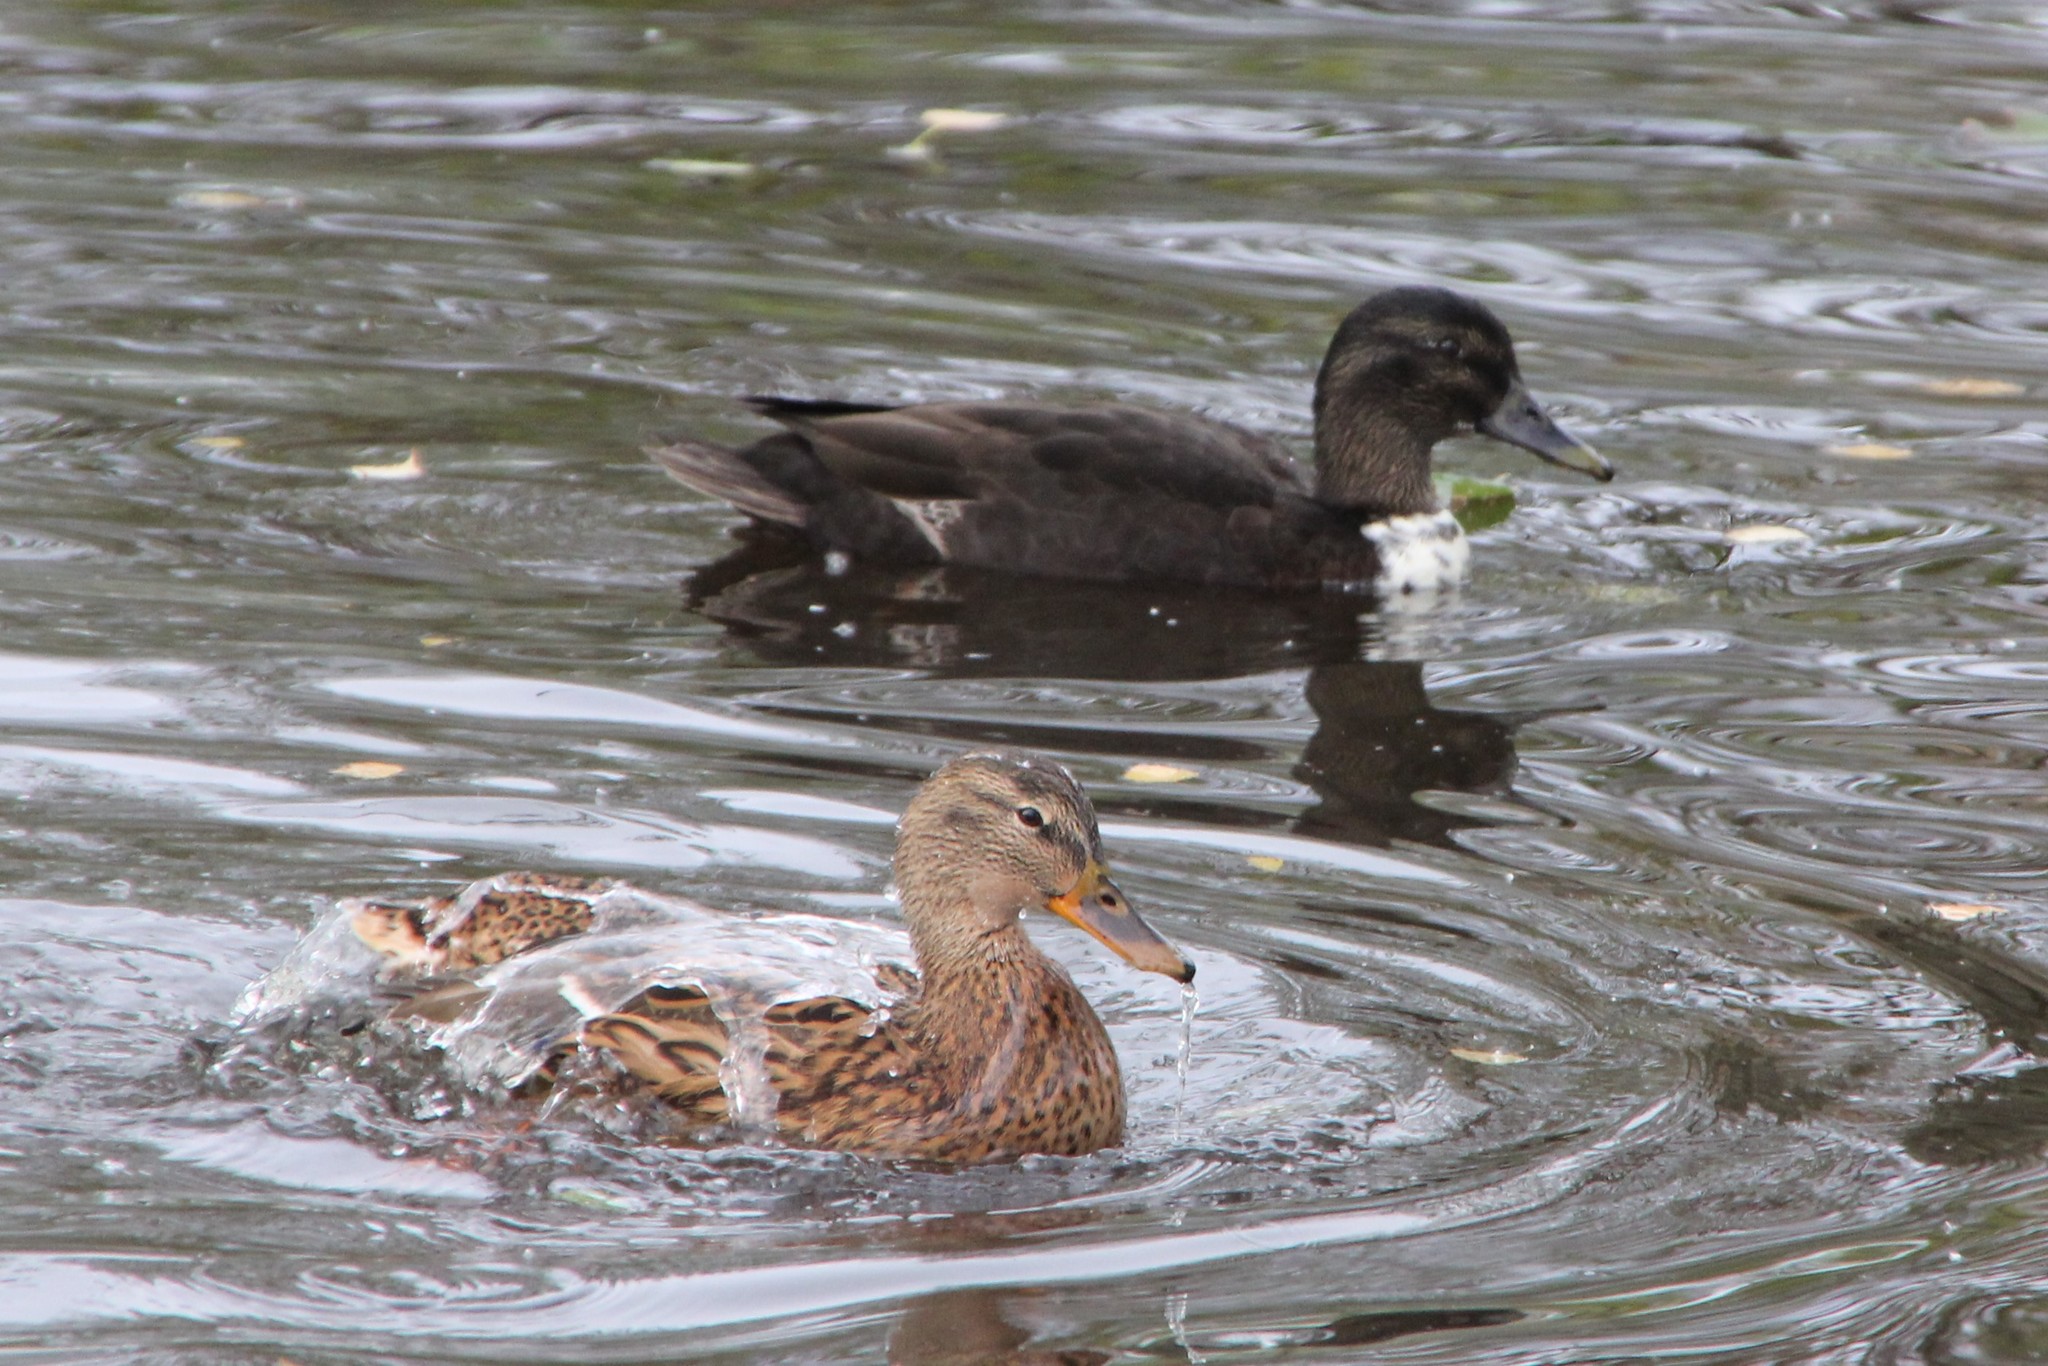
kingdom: Animalia
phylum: Chordata
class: Aves
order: Anseriformes
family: Anatidae
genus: Anas
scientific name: Anas platyrhynchos
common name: Mallard
